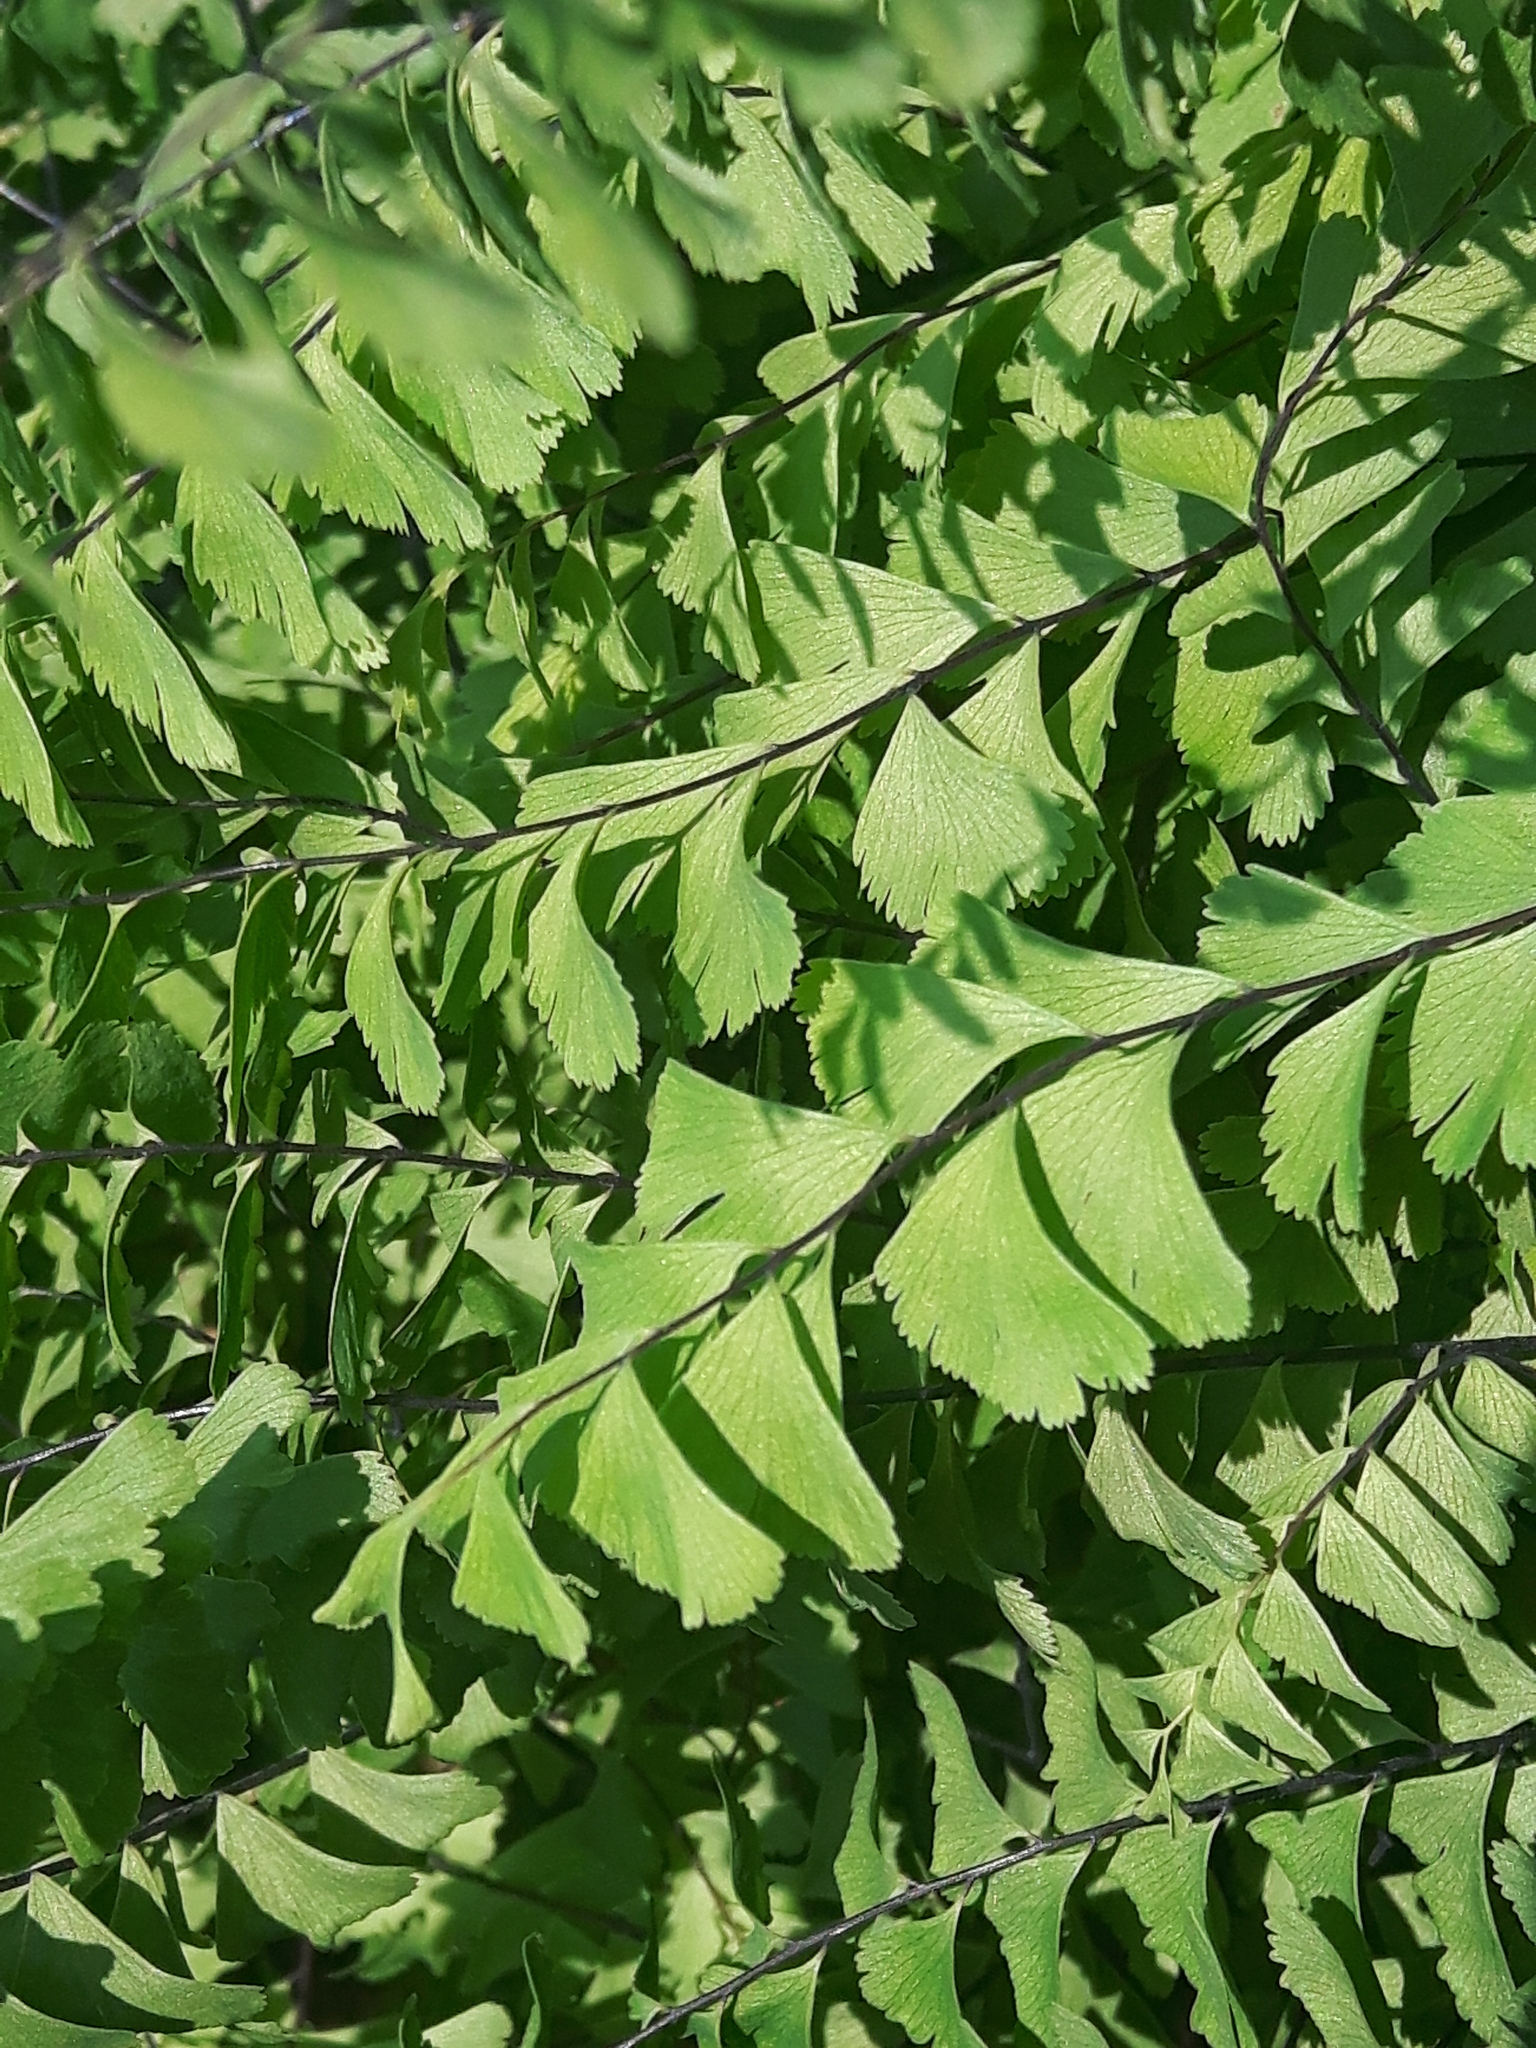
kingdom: Plantae
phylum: Tracheophyta
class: Polypodiopsida
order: Polypodiales
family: Pteridaceae
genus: Adiantum
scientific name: Adiantum aleuticum
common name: Aleutian maidenhair fern
